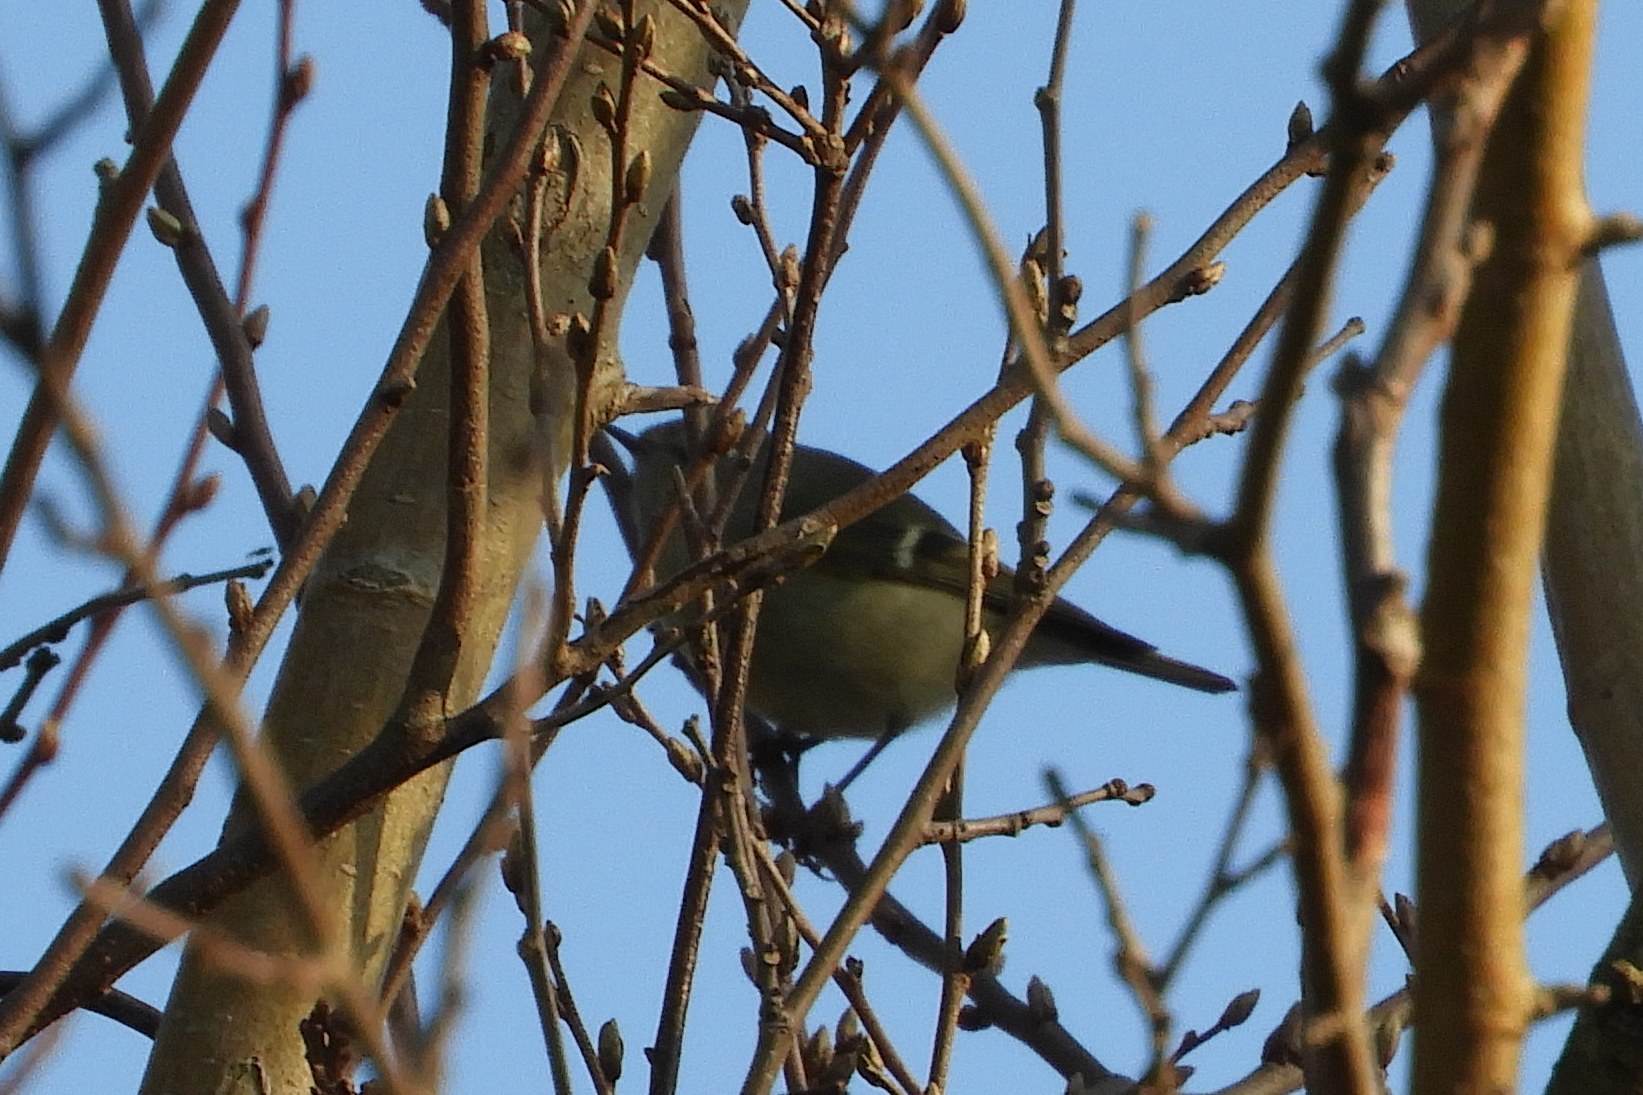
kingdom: Animalia
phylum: Chordata
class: Aves
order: Passeriformes
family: Regulidae
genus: Regulus
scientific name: Regulus calendula
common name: Ruby-crowned kinglet
